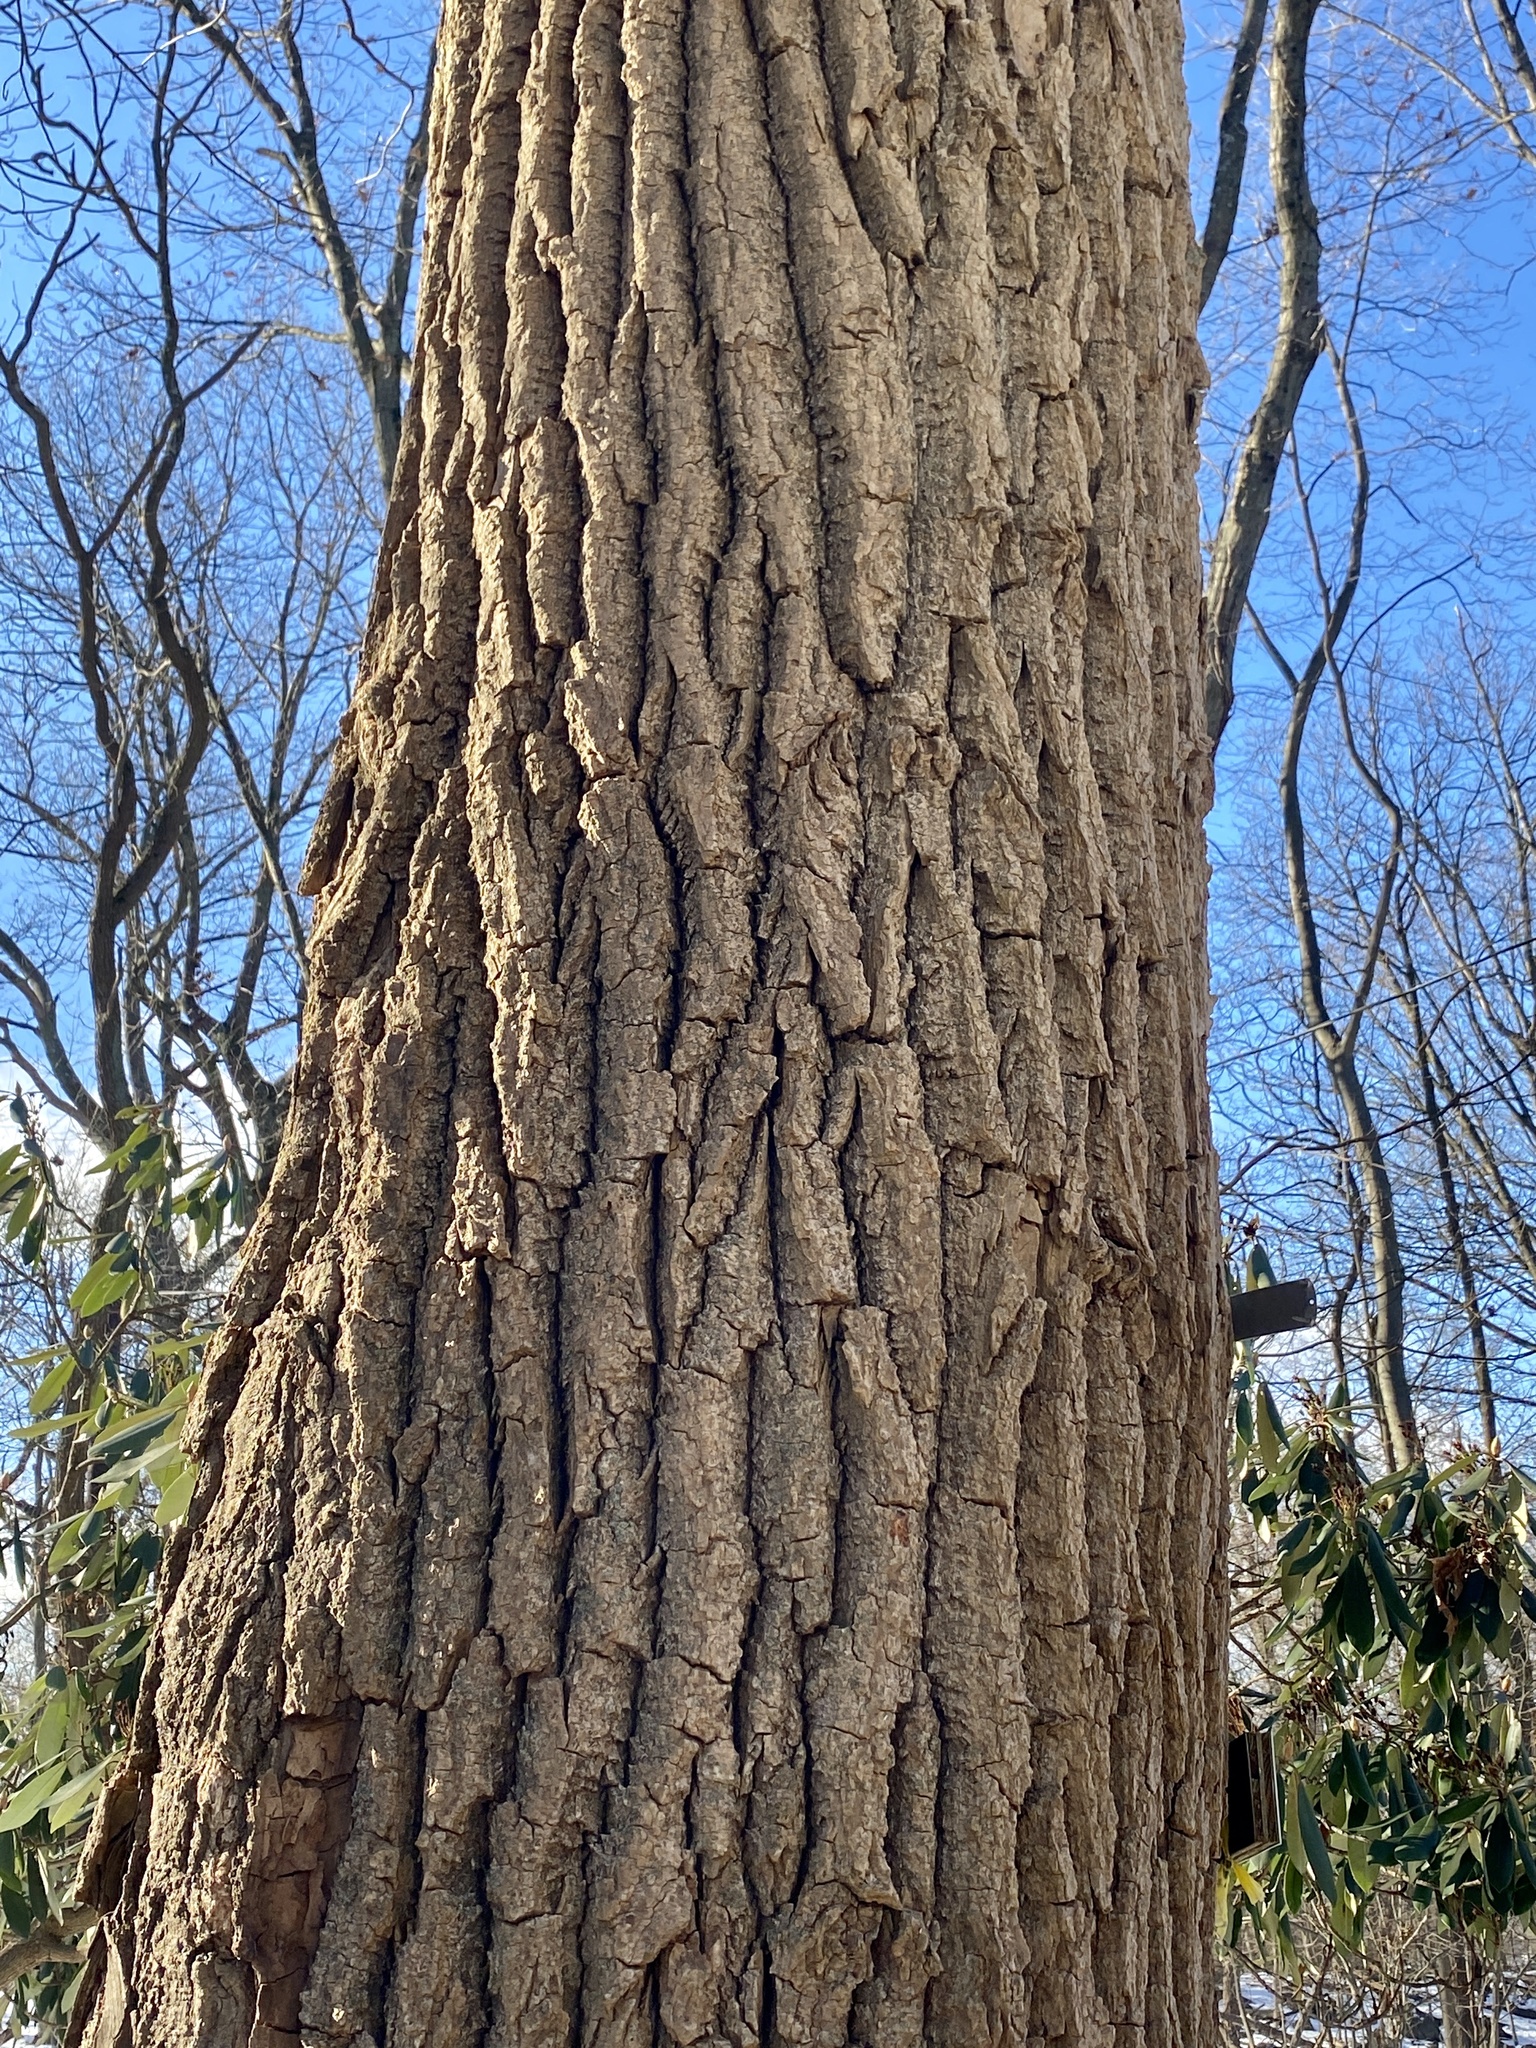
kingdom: Plantae
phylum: Tracheophyta
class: Magnoliopsida
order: Malpighiales
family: Salicaceae
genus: Populus
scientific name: Populus deltoides
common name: Eastern cottonwood
